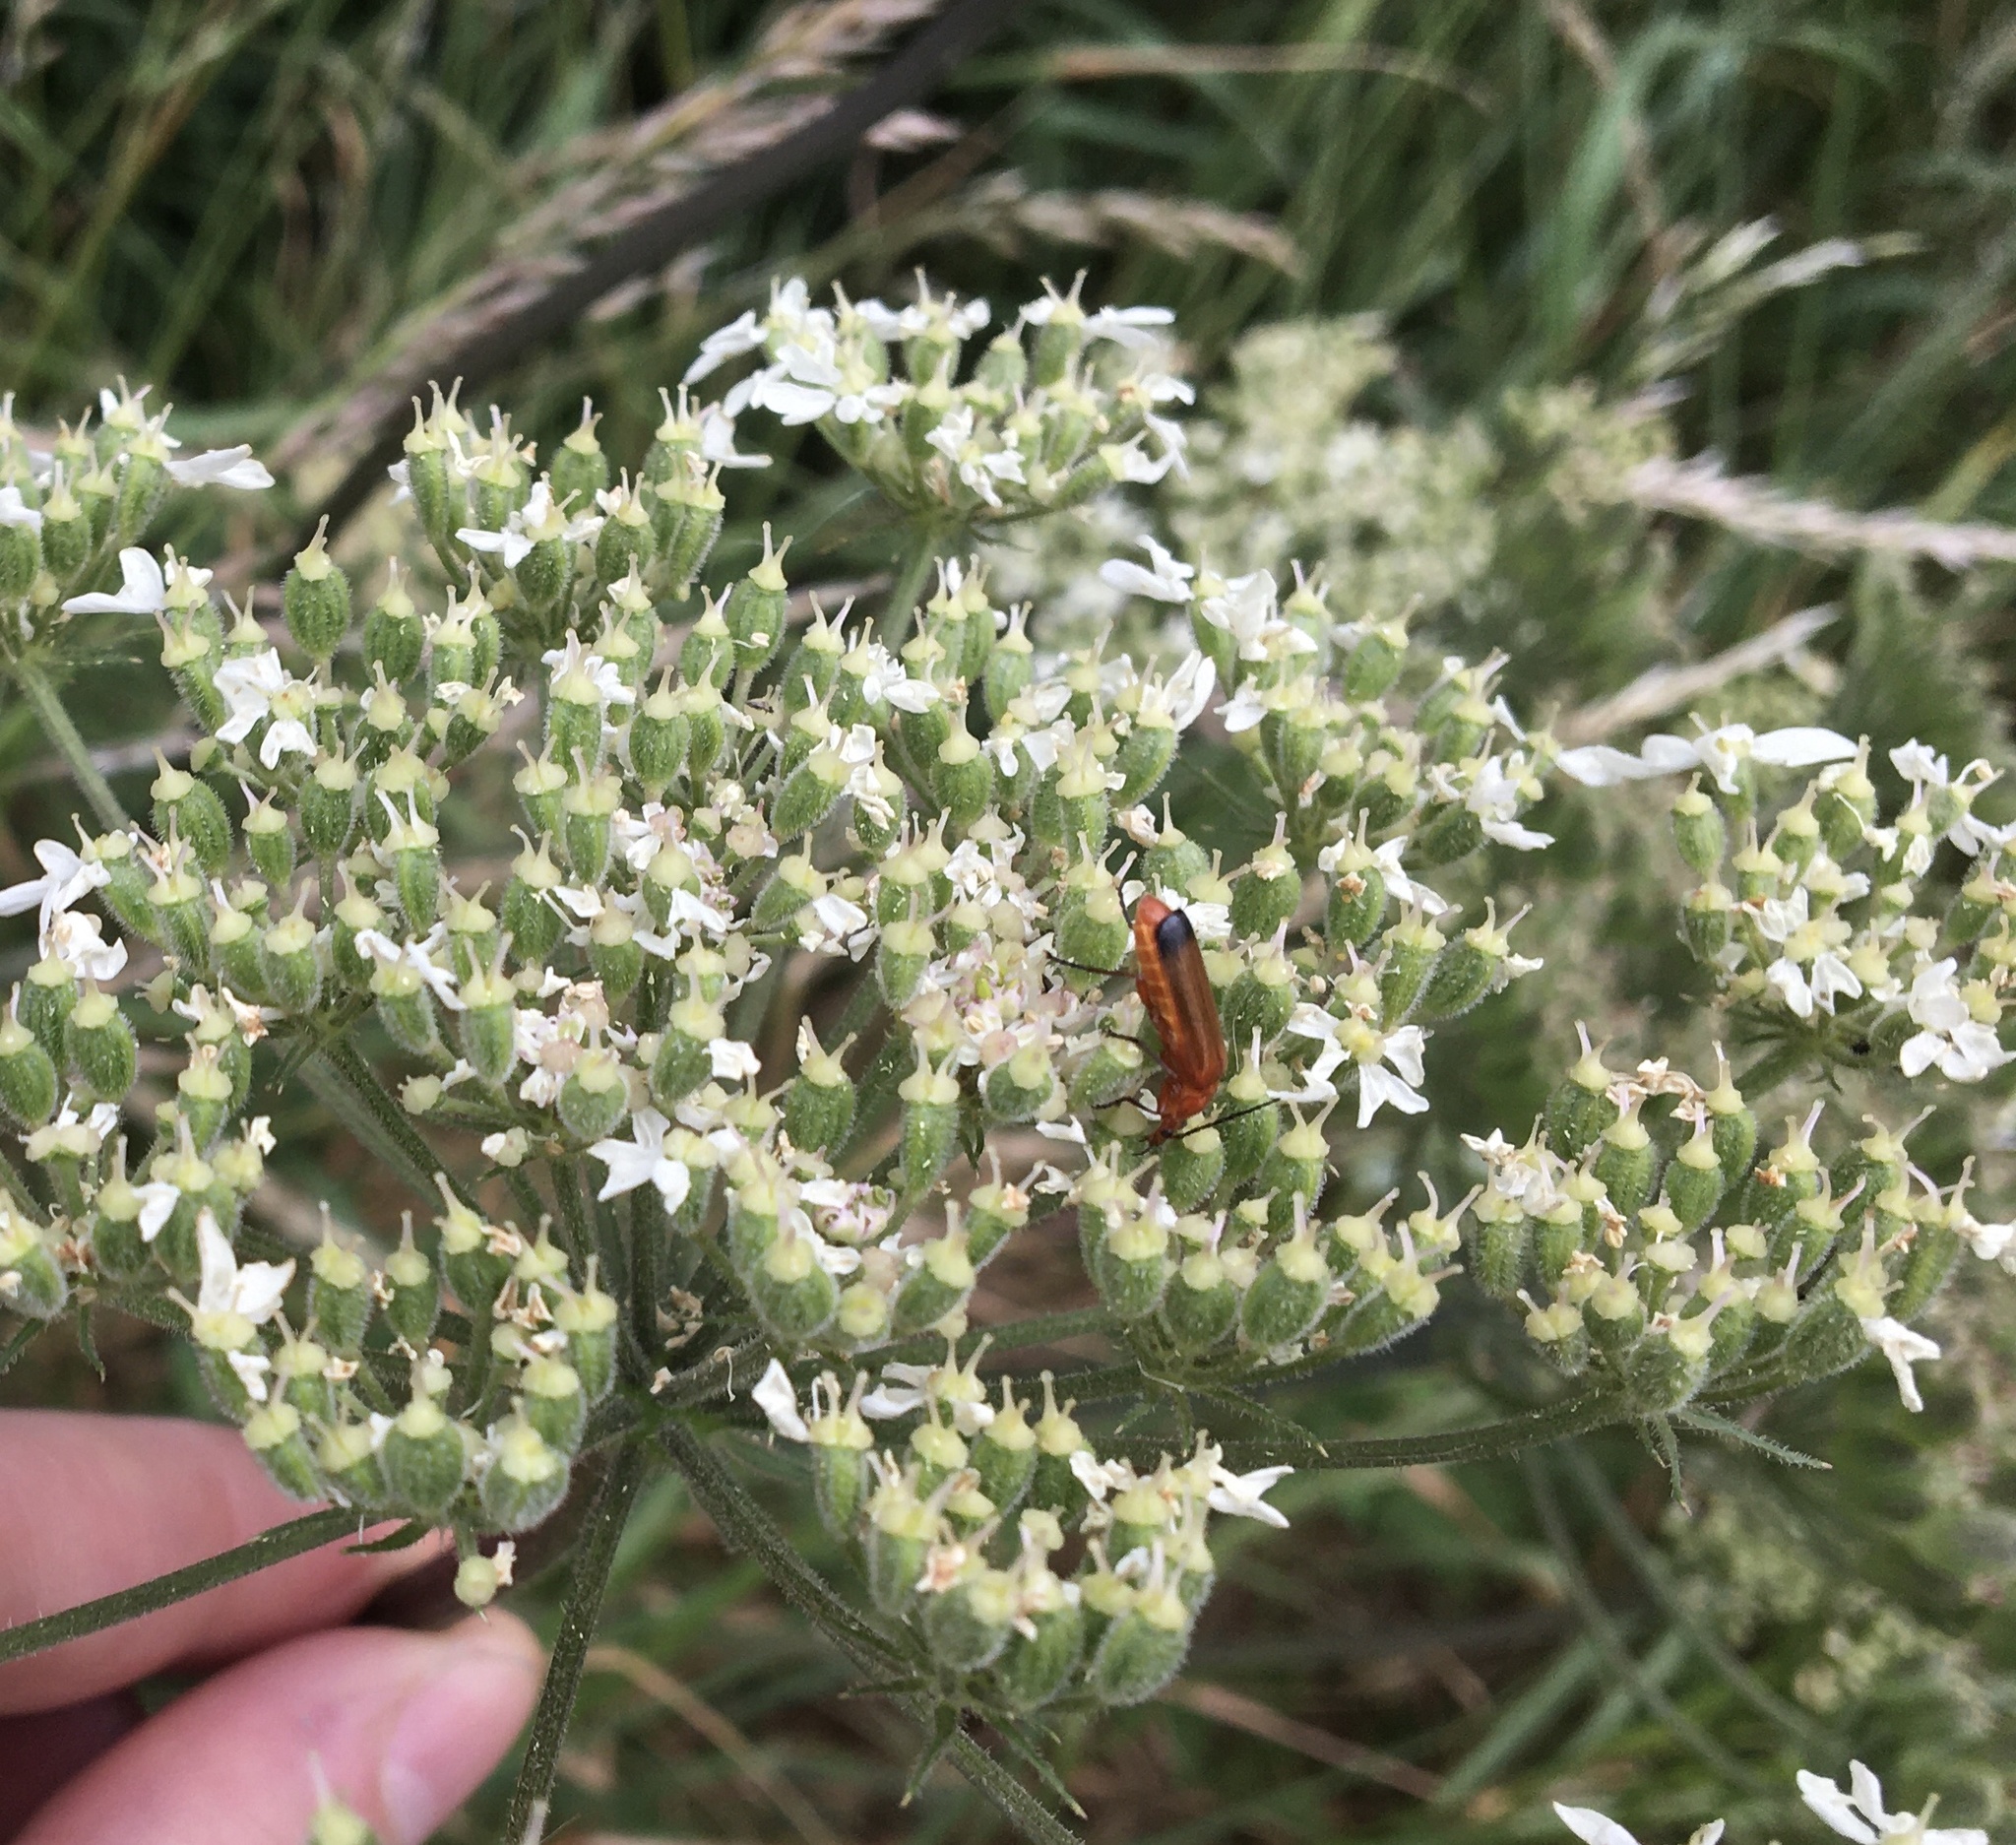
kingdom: Animalia
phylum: Arthropoda
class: Insecta
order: Coleoptera
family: Cantharidae
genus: Rhagonycha
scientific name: Rhagonycha fulva
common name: Common red soldier beetle
